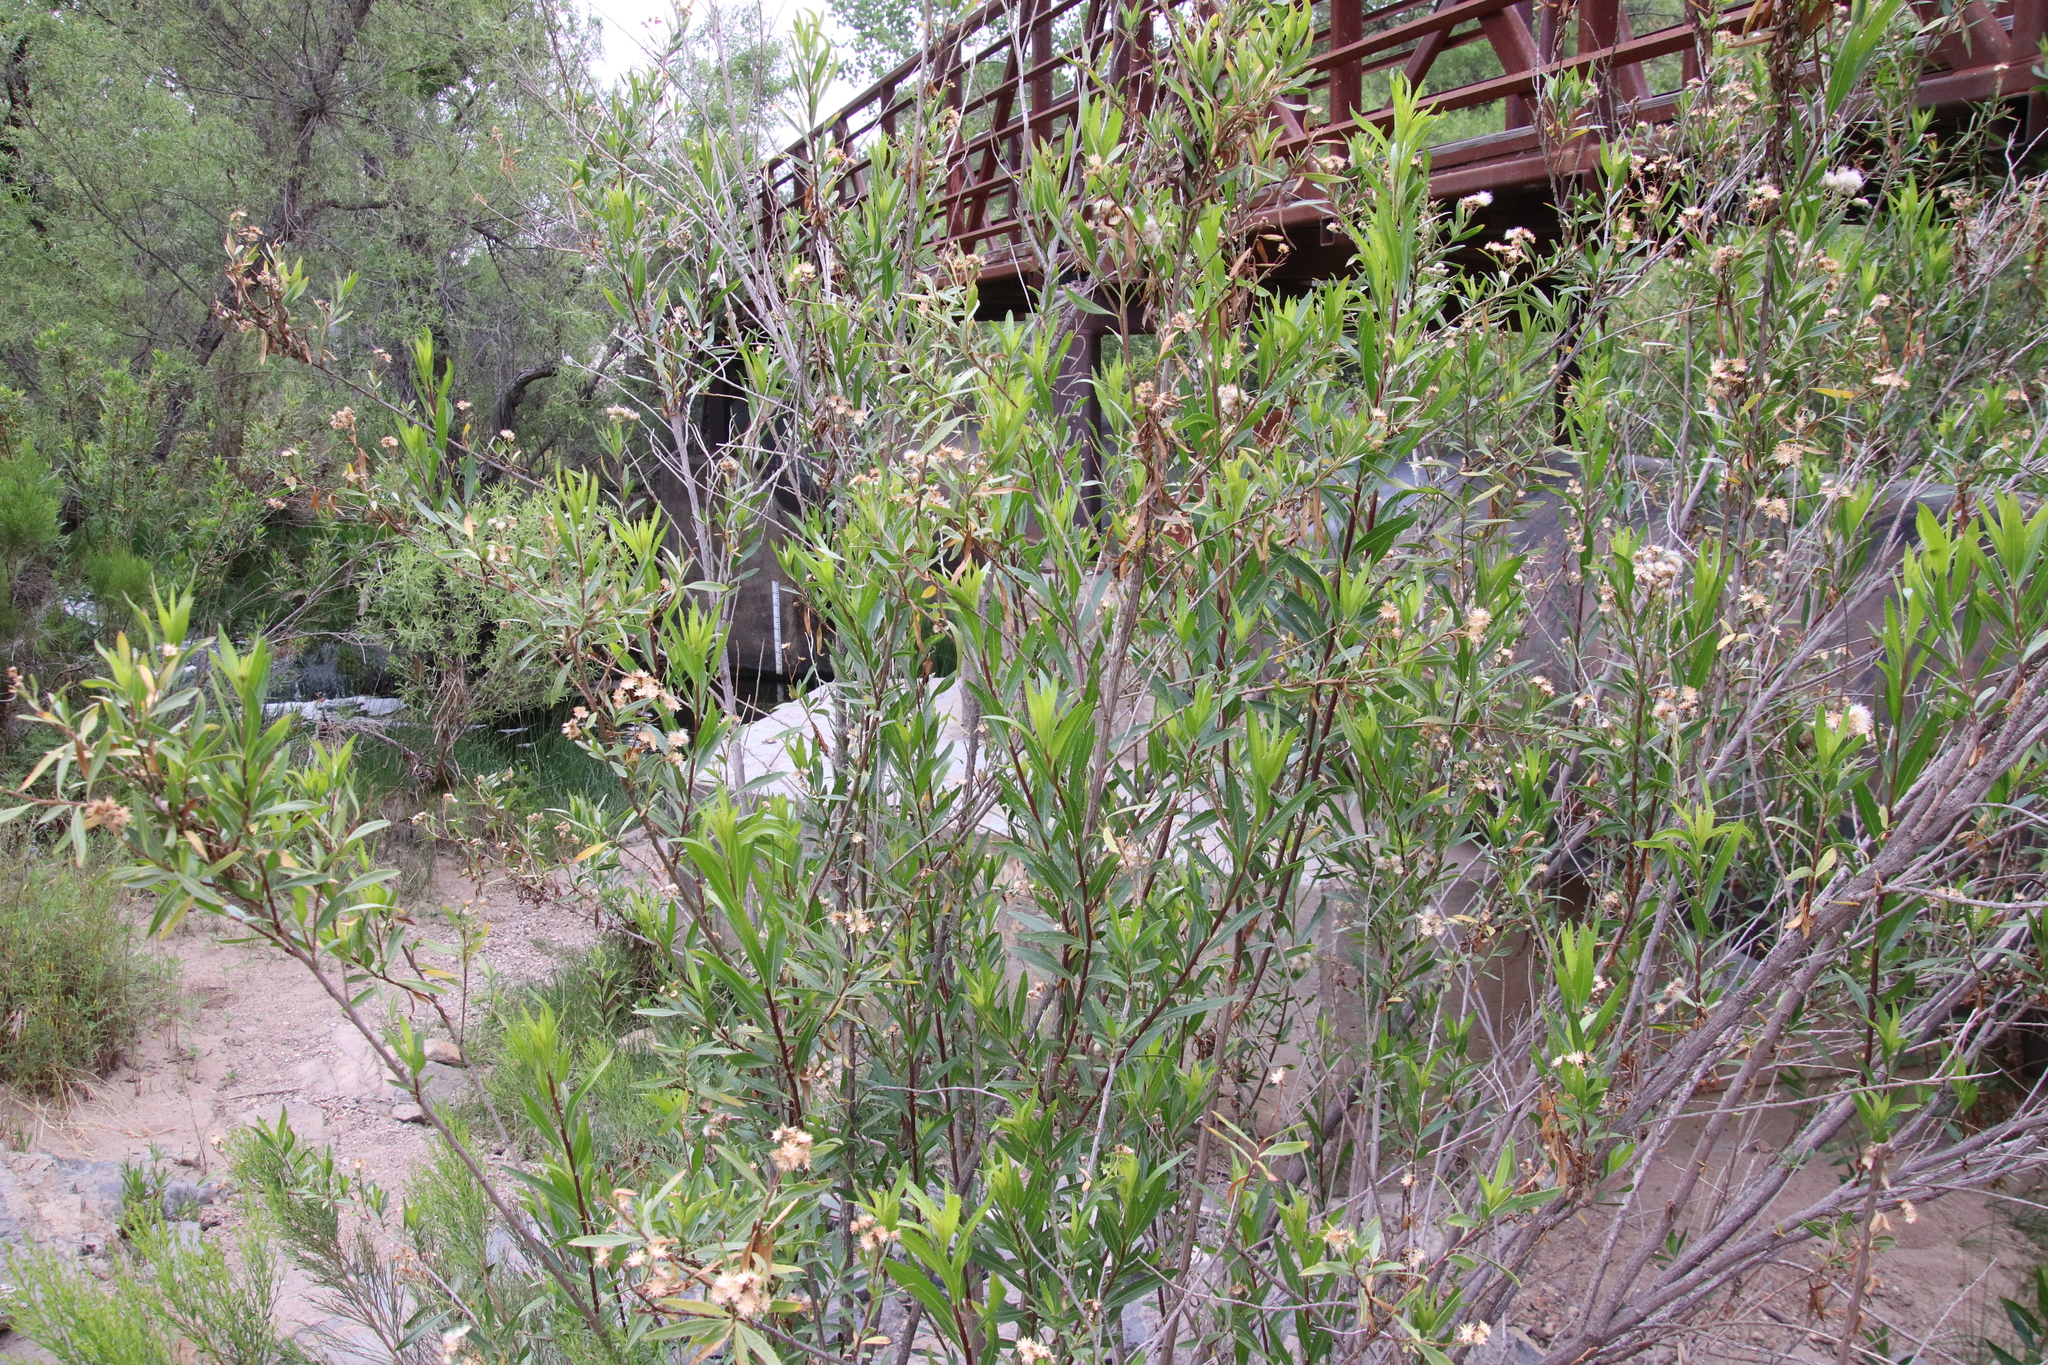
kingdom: Plantae
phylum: Tracheophyta
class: Magnoliopsida
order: Asterales
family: Asteraceae
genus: Baccharis
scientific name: Baccharis salicifolia
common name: Sticky baccharis
